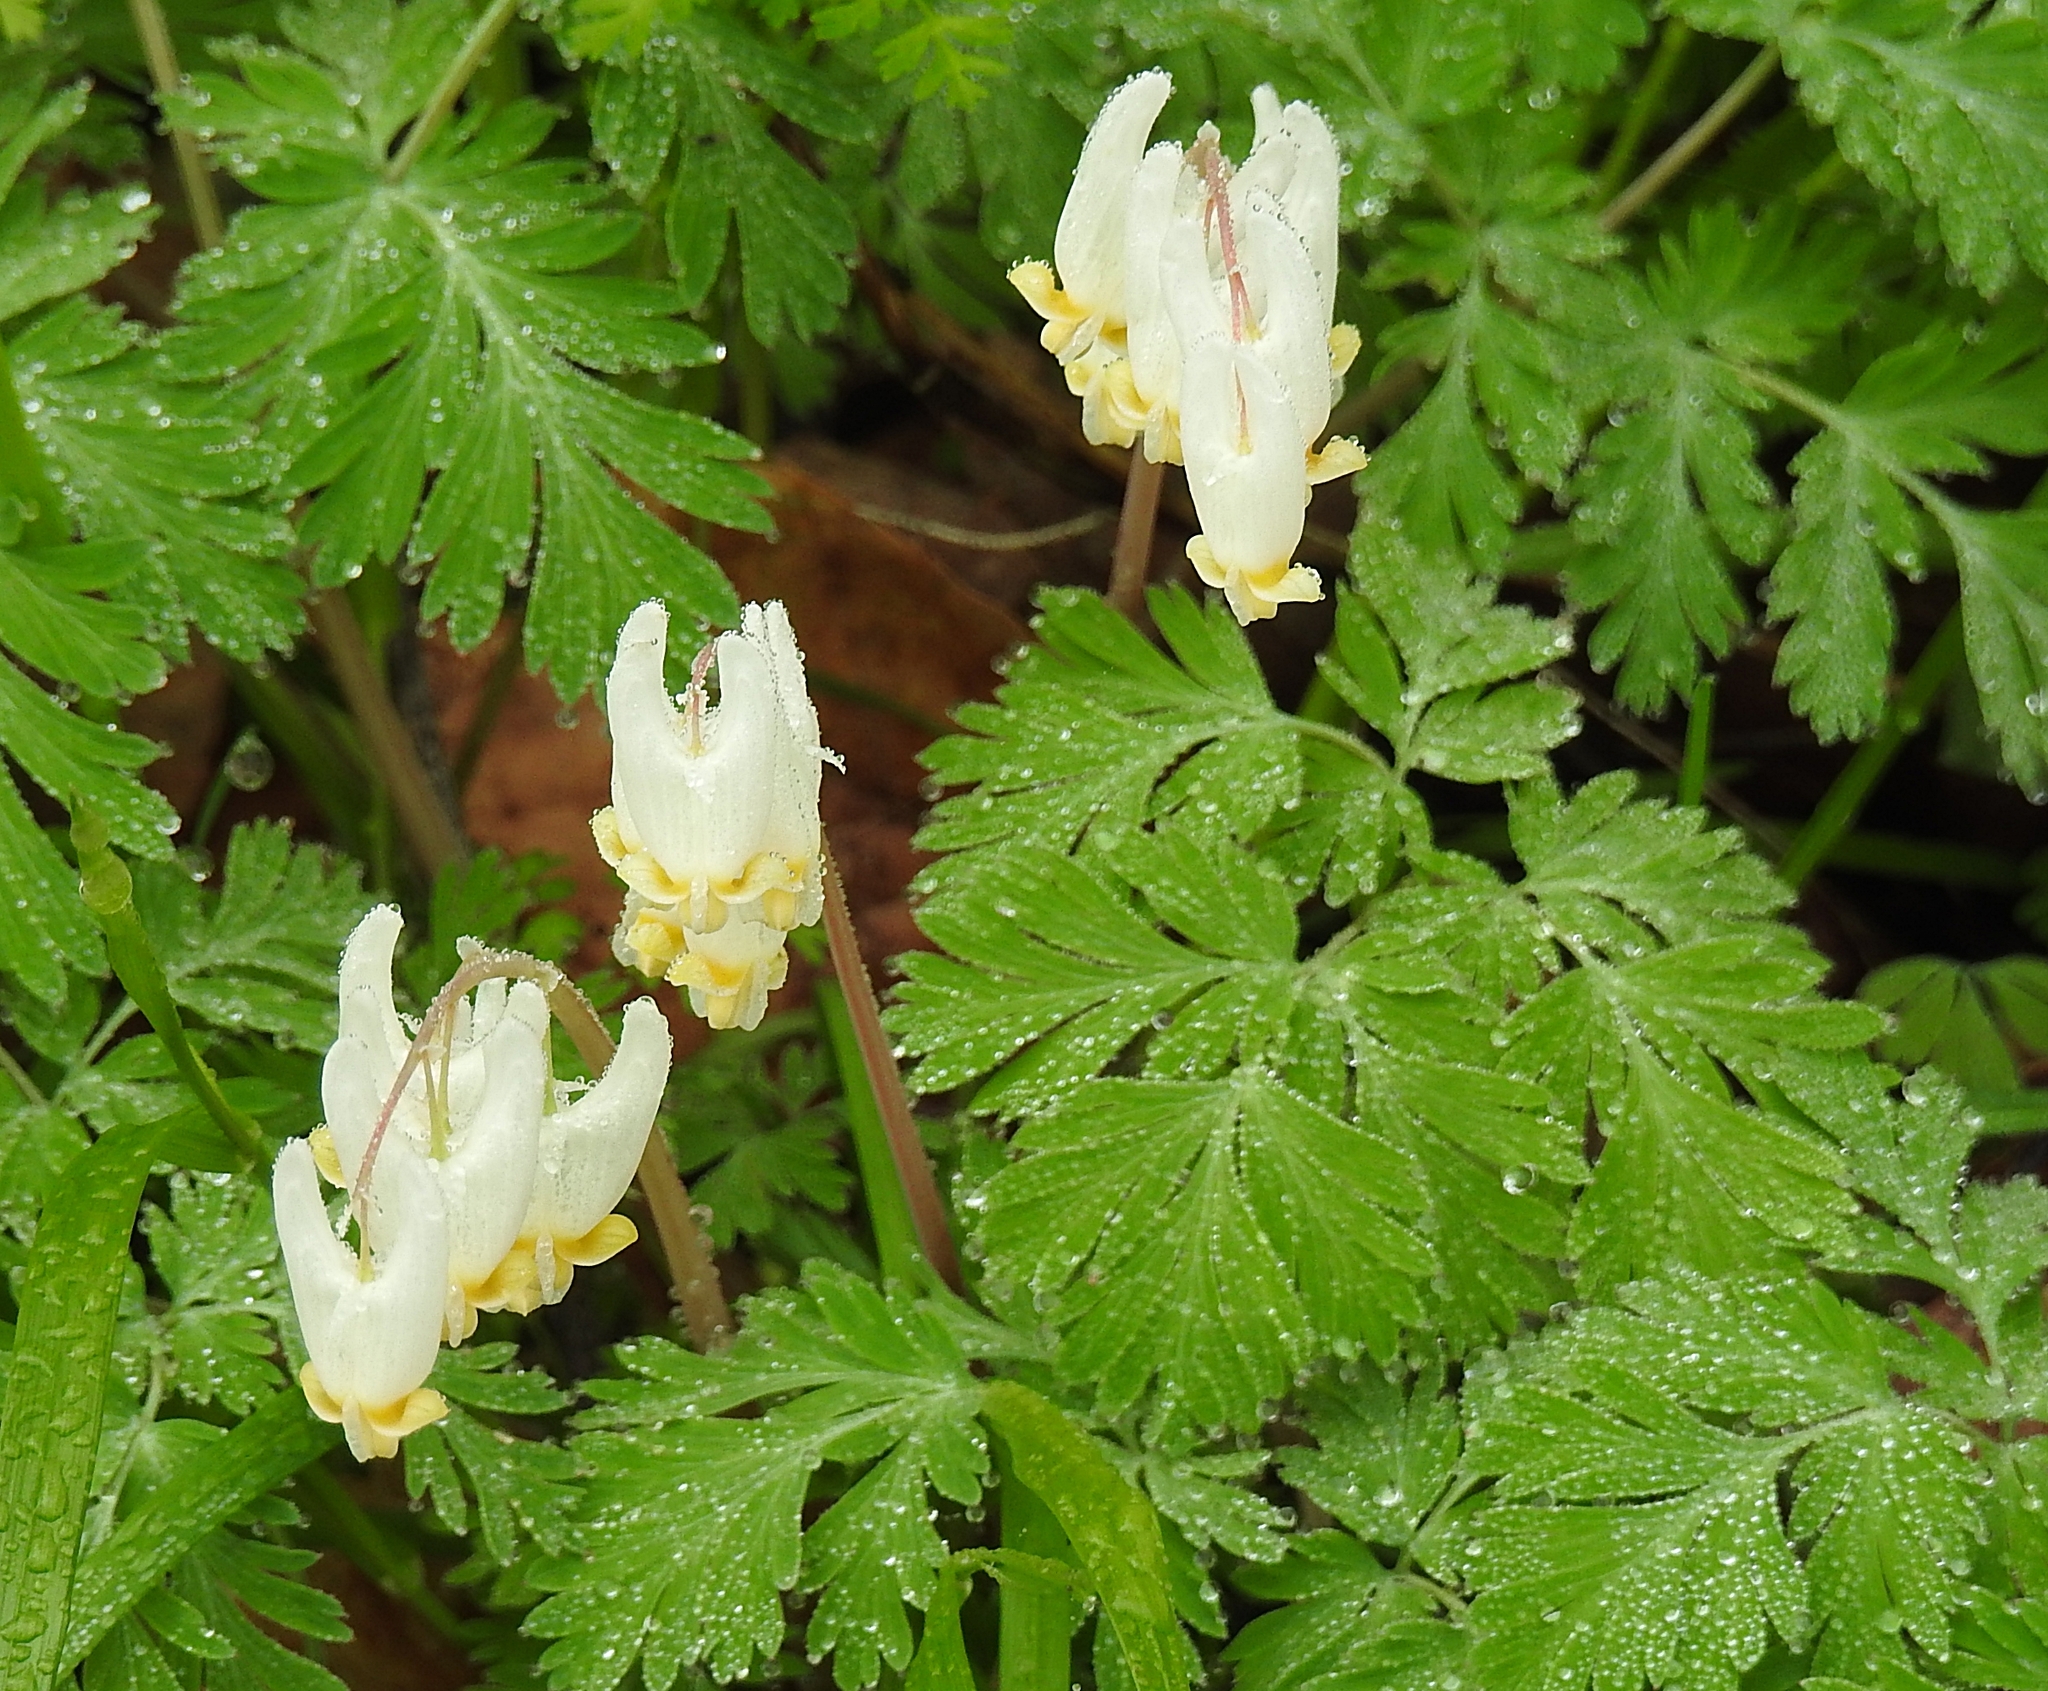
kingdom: Plantae
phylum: Tracheophyta
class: Magnoliopsida
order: Ranunculales
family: Papaveraceae
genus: Dicentra
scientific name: Dicentra cucullaria
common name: Dutchman's breeches
